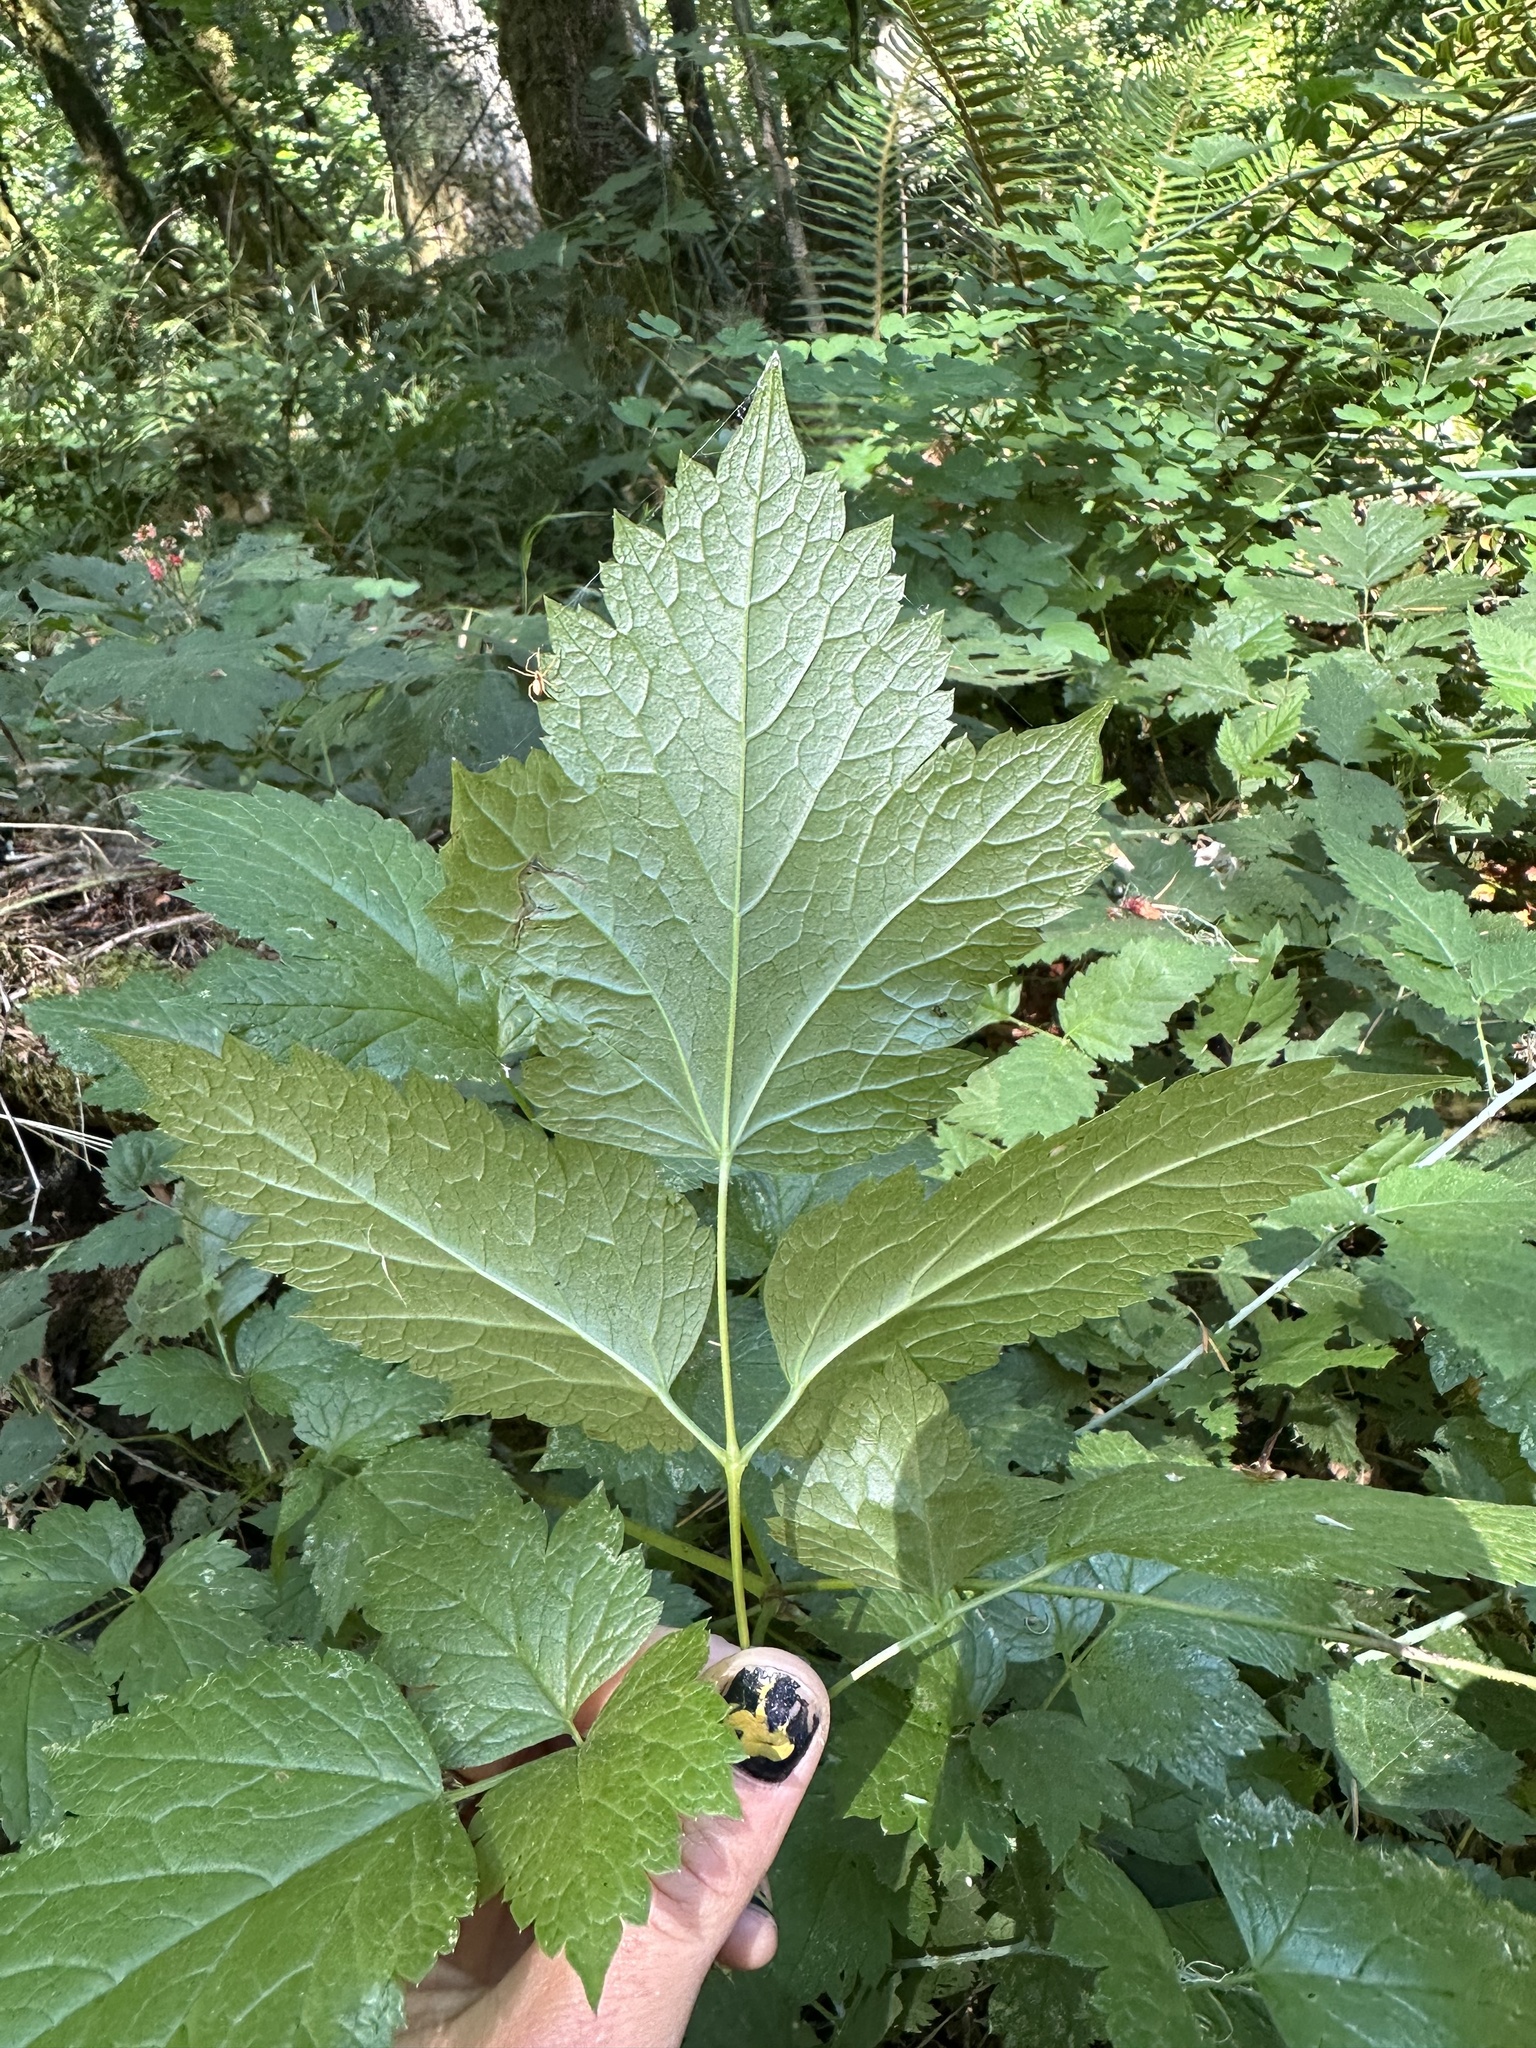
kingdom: Plantae
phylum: Tracheophyta
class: Magnoliopsida
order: Ranunculales
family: Ranunculaceae
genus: Actaea
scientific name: Actaea rubra
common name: Red baneberry
